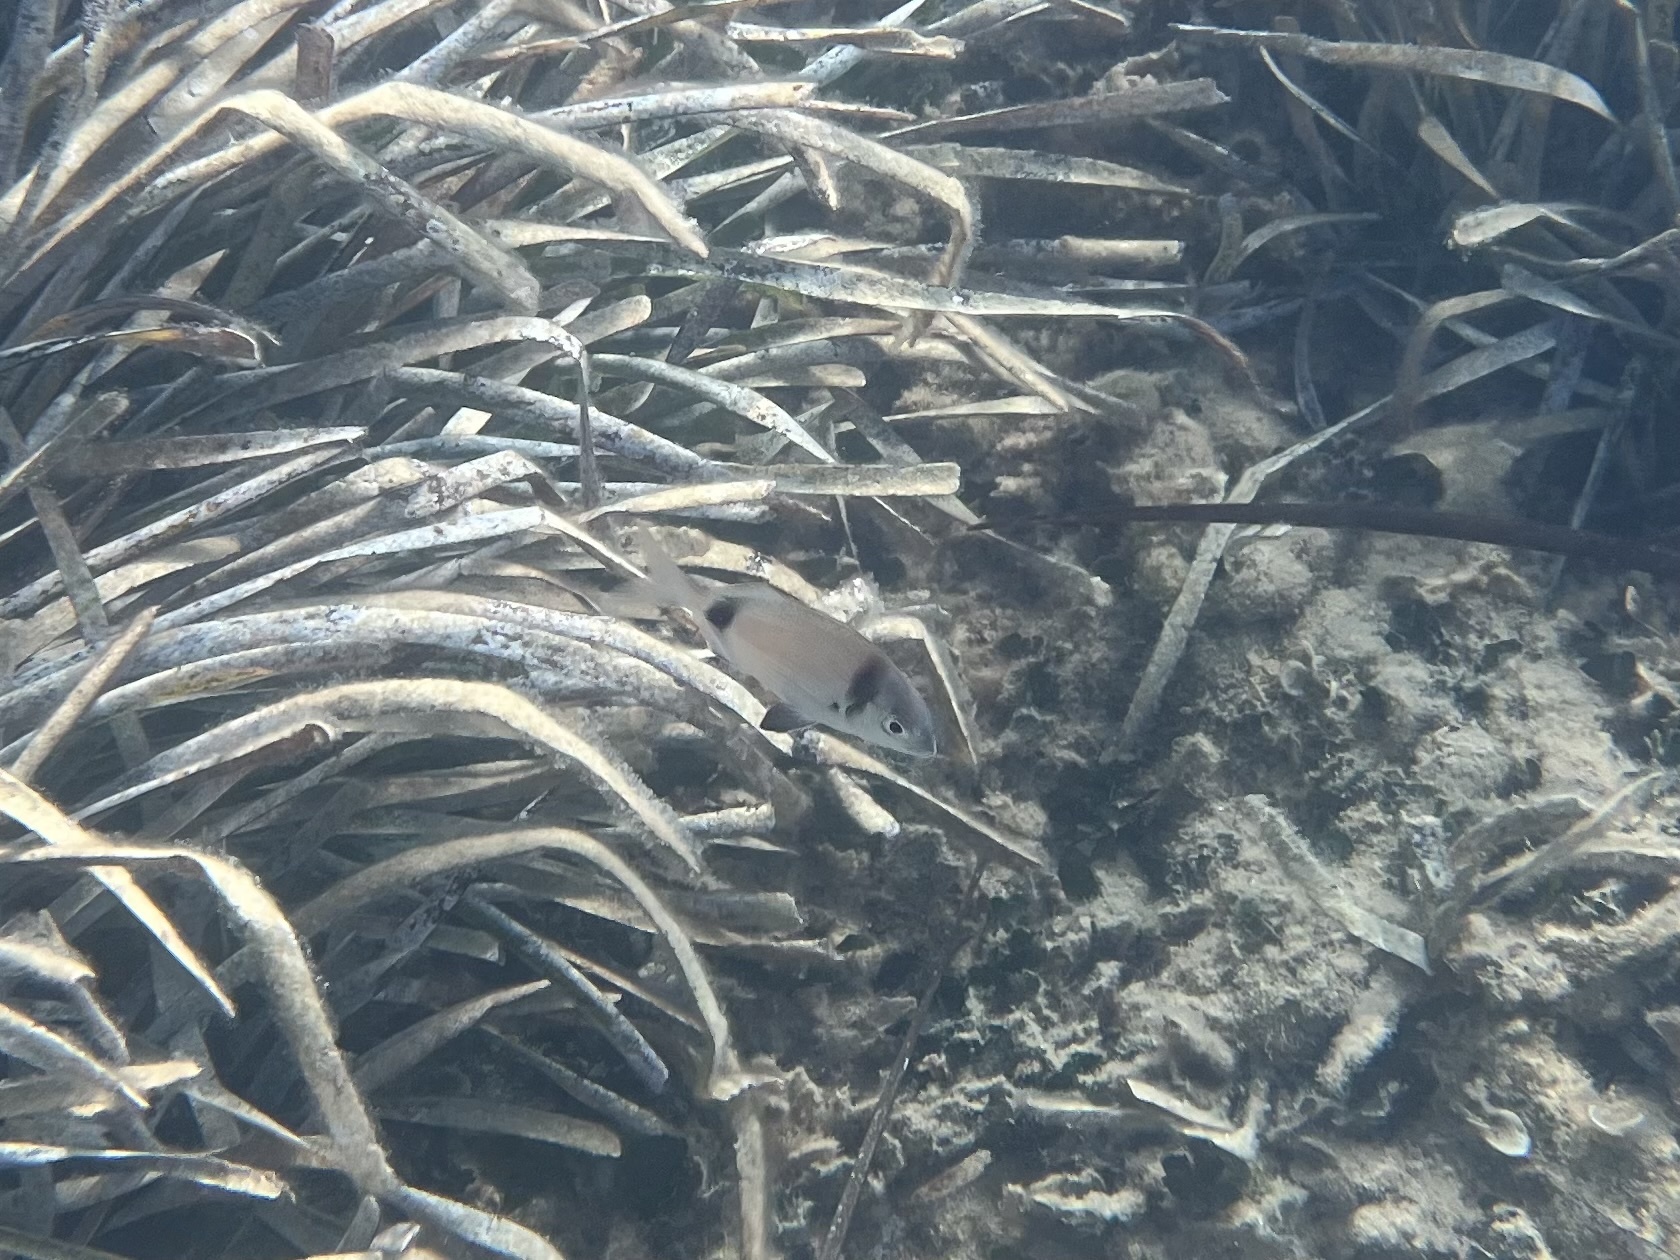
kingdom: Animalia
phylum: Chordata
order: Perciformes
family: Sparidae
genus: Diplodus
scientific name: Diplodus vulgaris
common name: Common two-banded seabream
